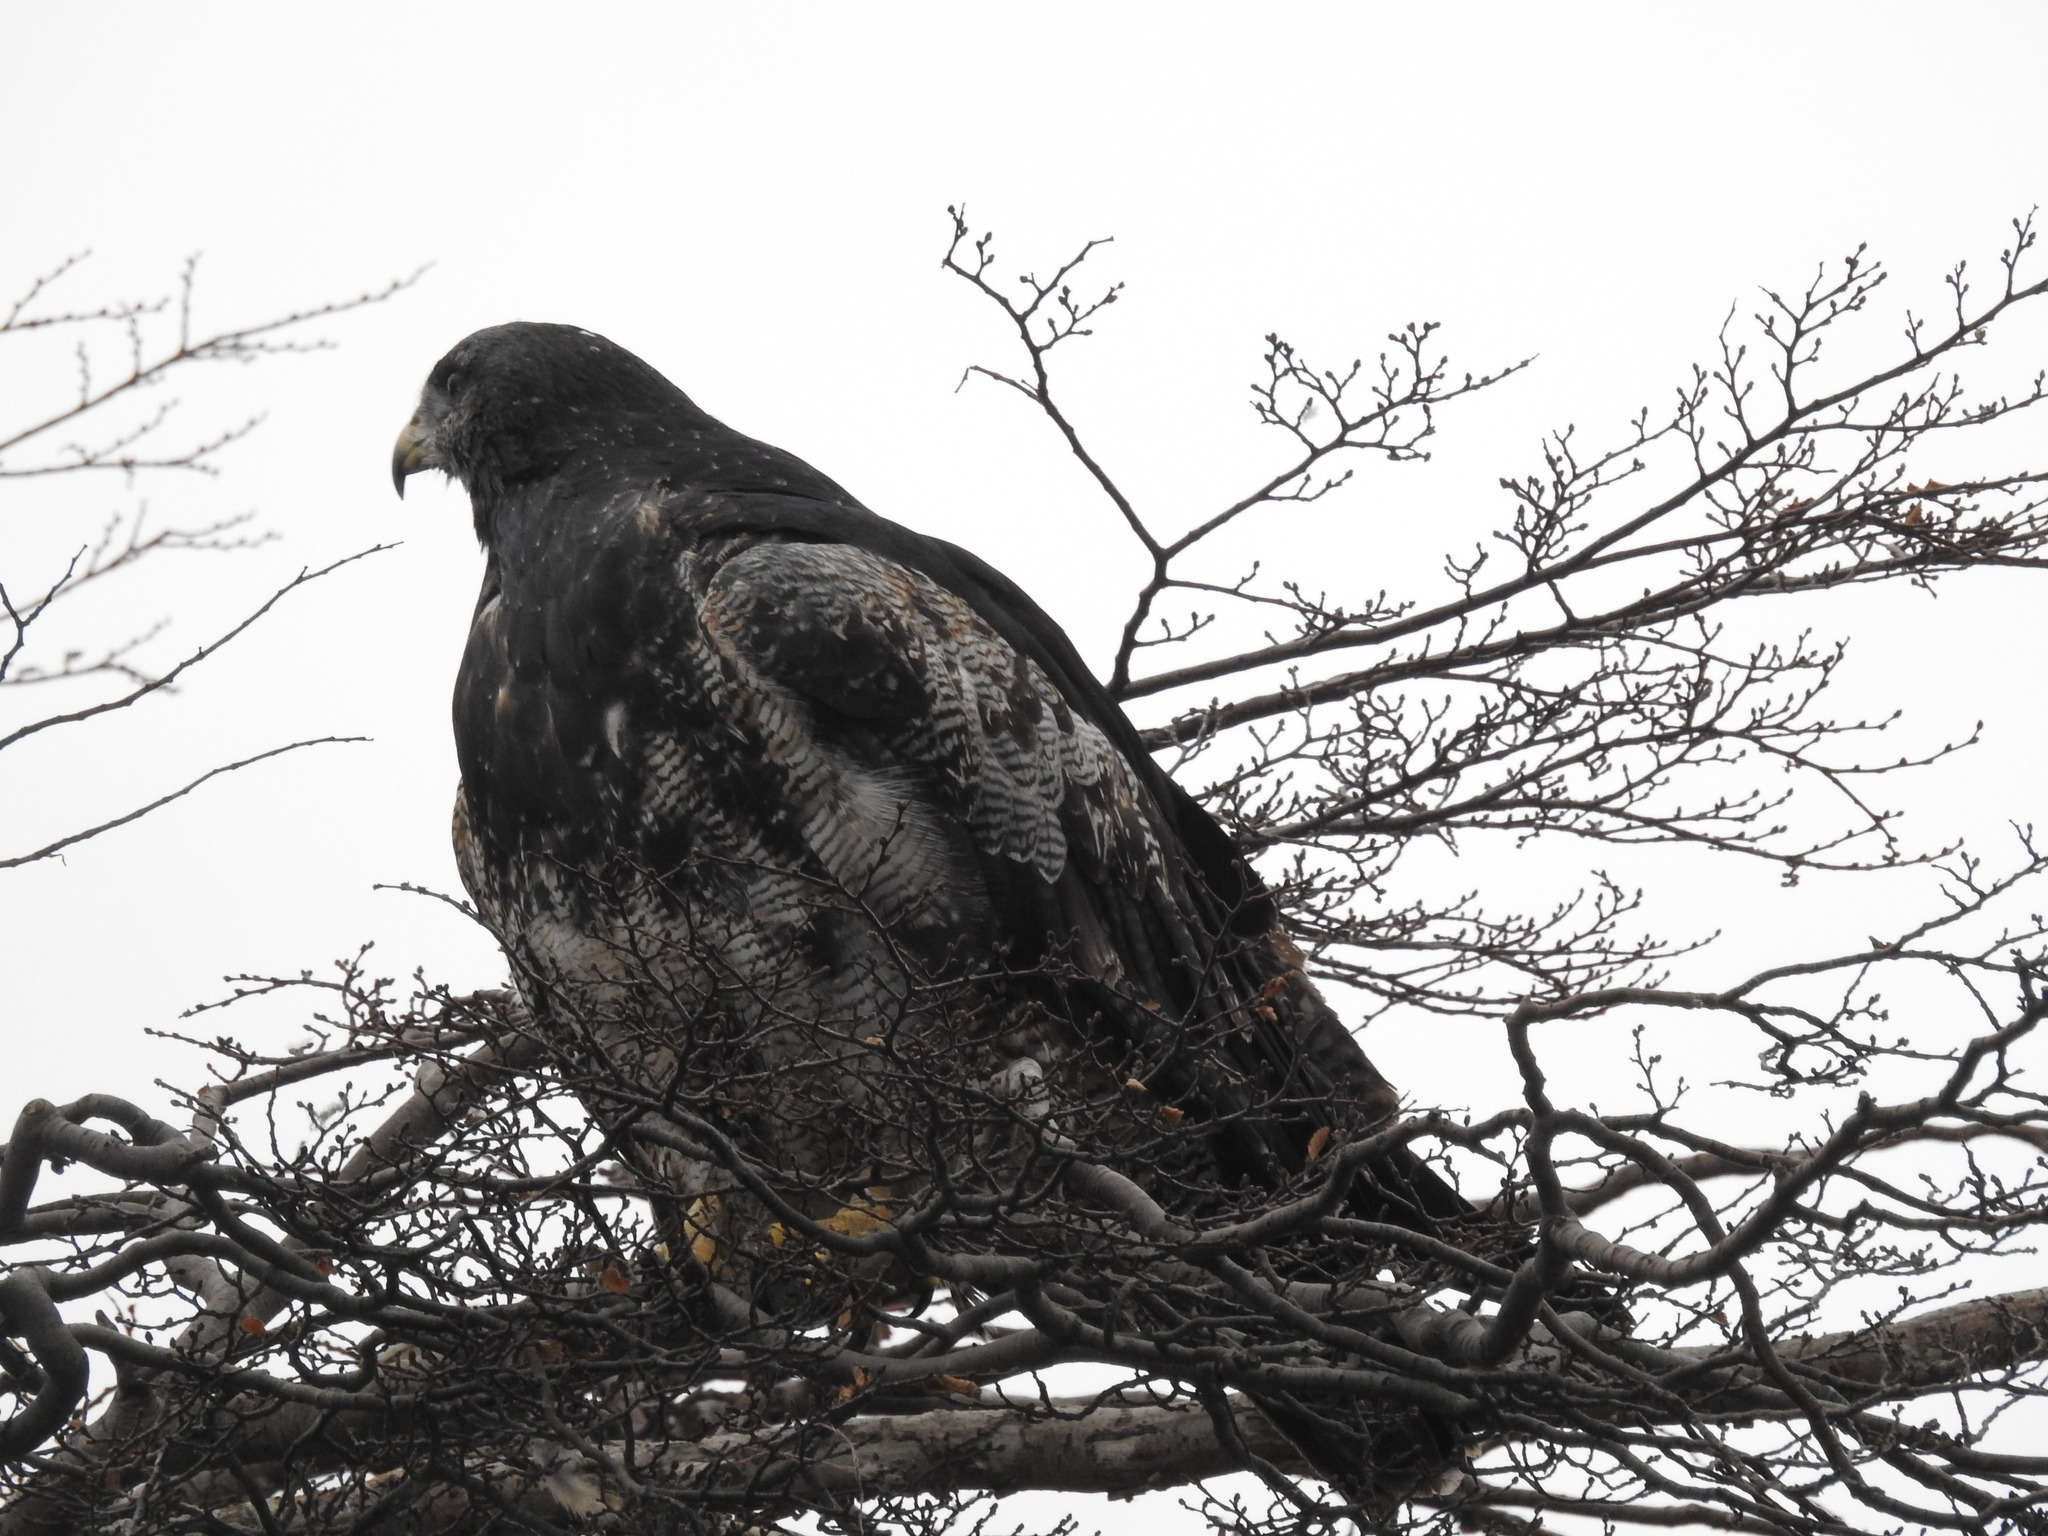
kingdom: Animalia
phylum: Chordata
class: Aves
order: Accipitriformes
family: Accipitridae
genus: Geranoaetus
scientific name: Geranoaetus melanoleucus
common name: Black-chested buzzard-eagle
